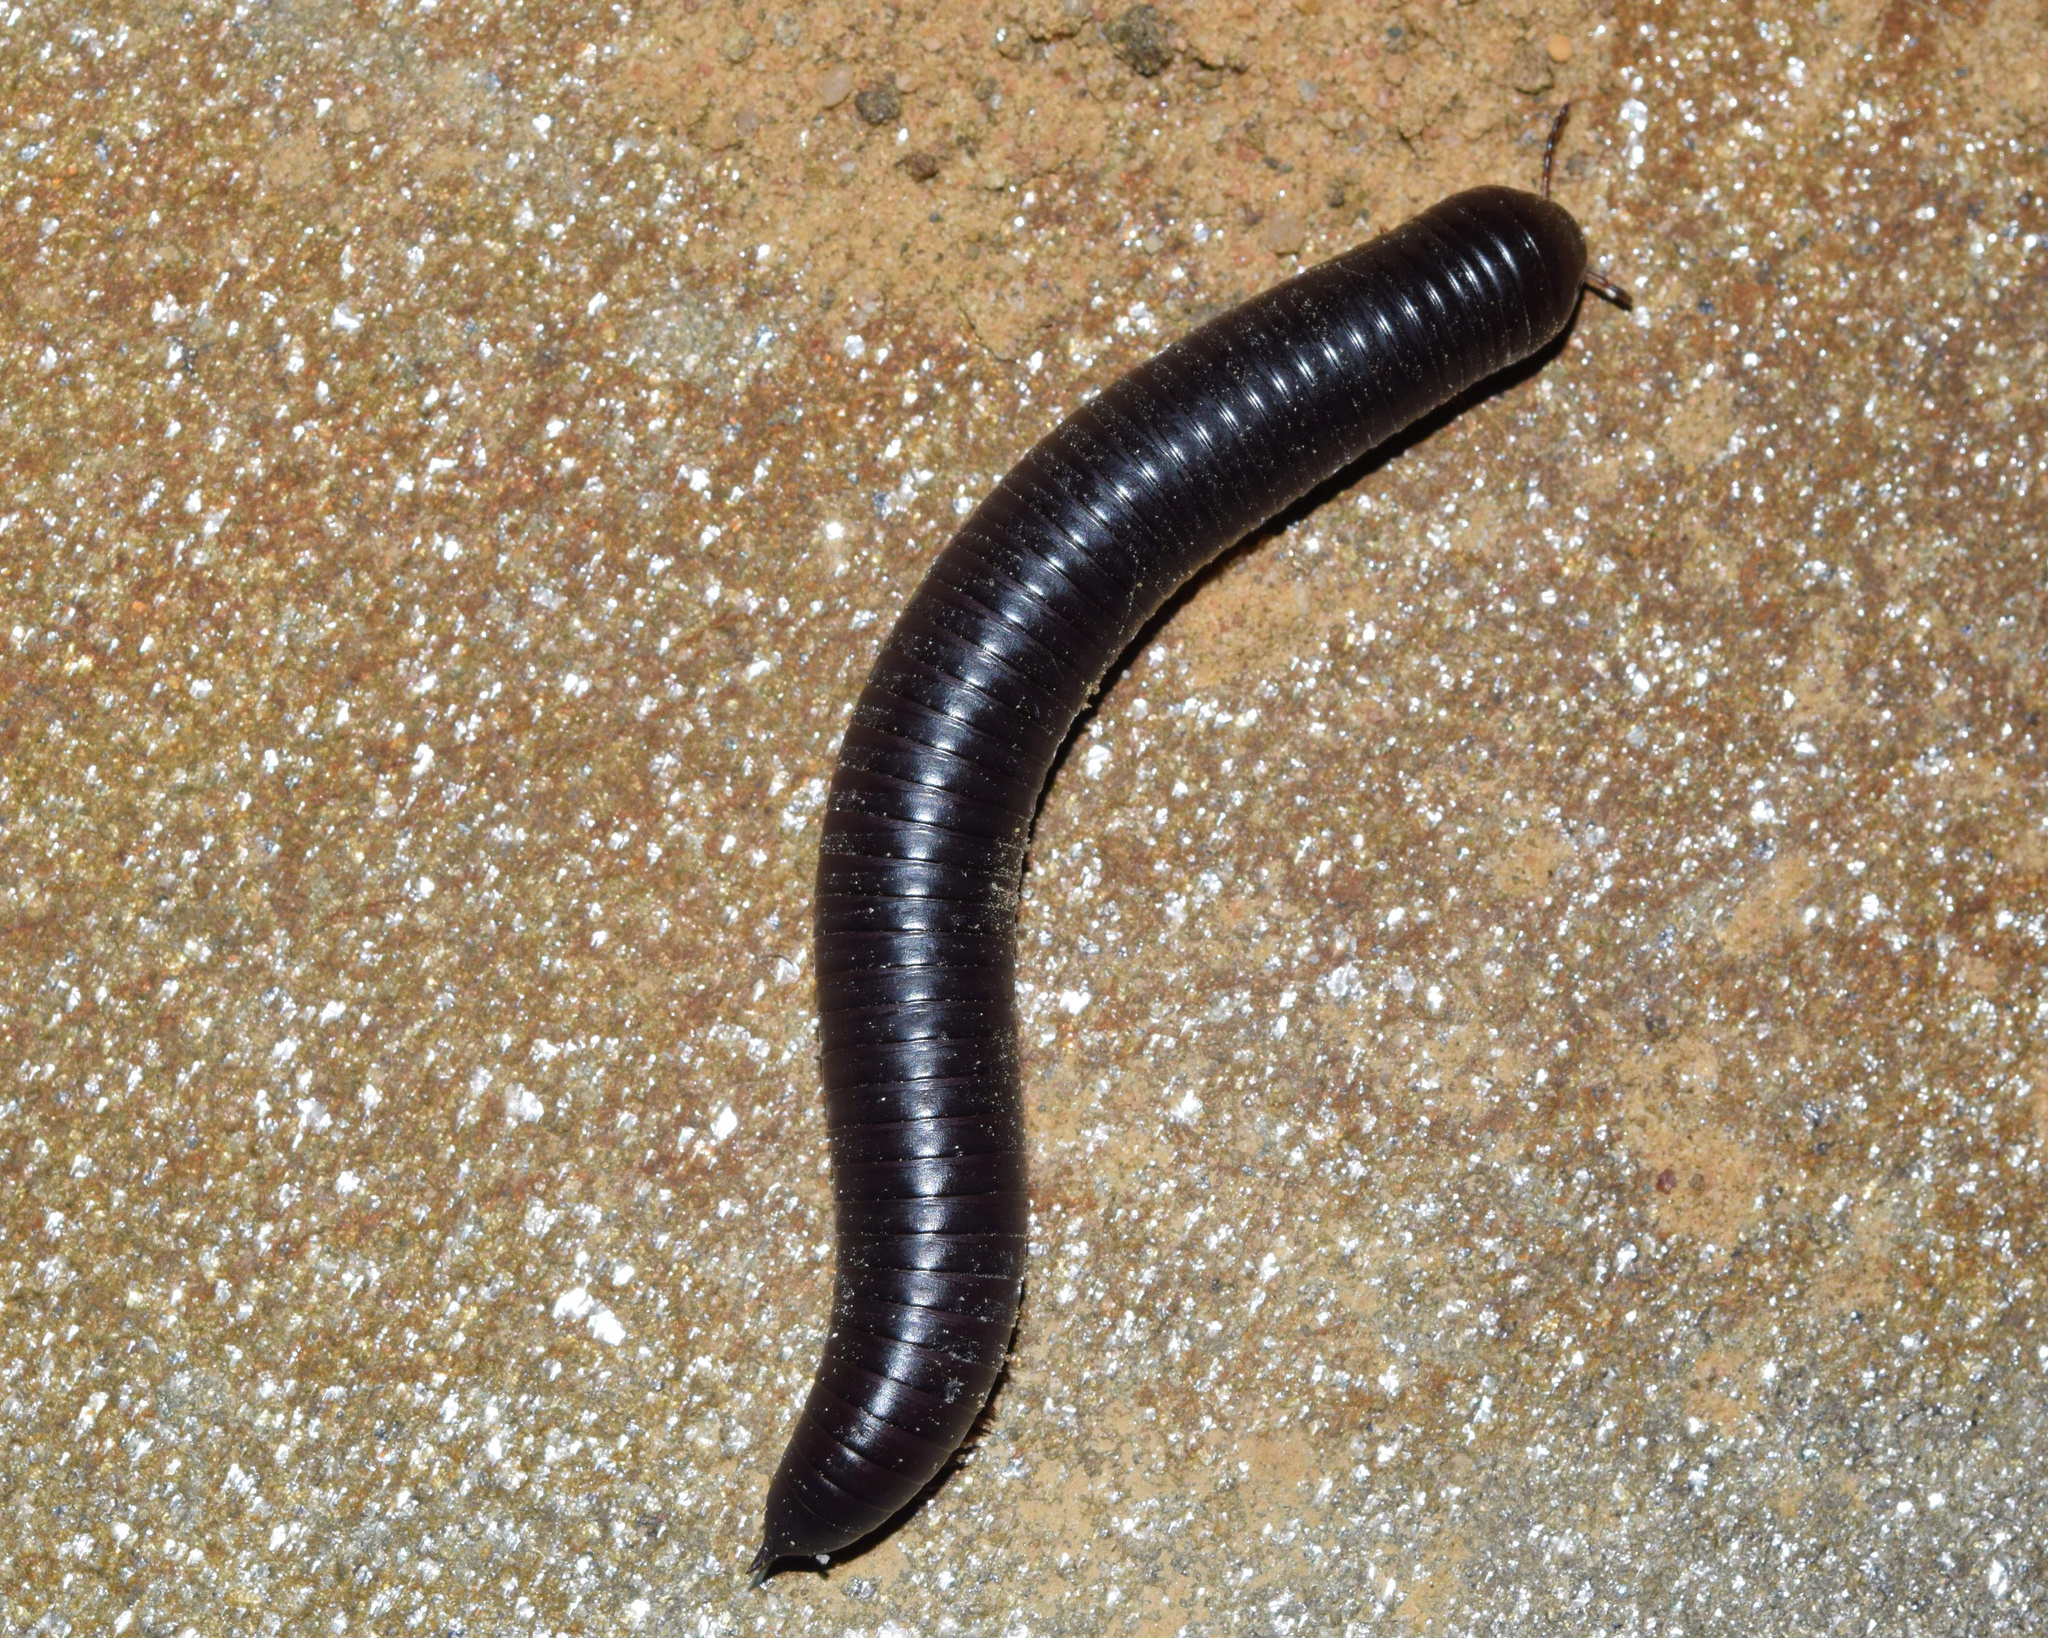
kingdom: Animalia
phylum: Arthropoda
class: Diplopoda
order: Spirostreptida
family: Harpagophoridae
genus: Zinophora
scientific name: Zinophora thukela
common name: Thukela large spined millipede
